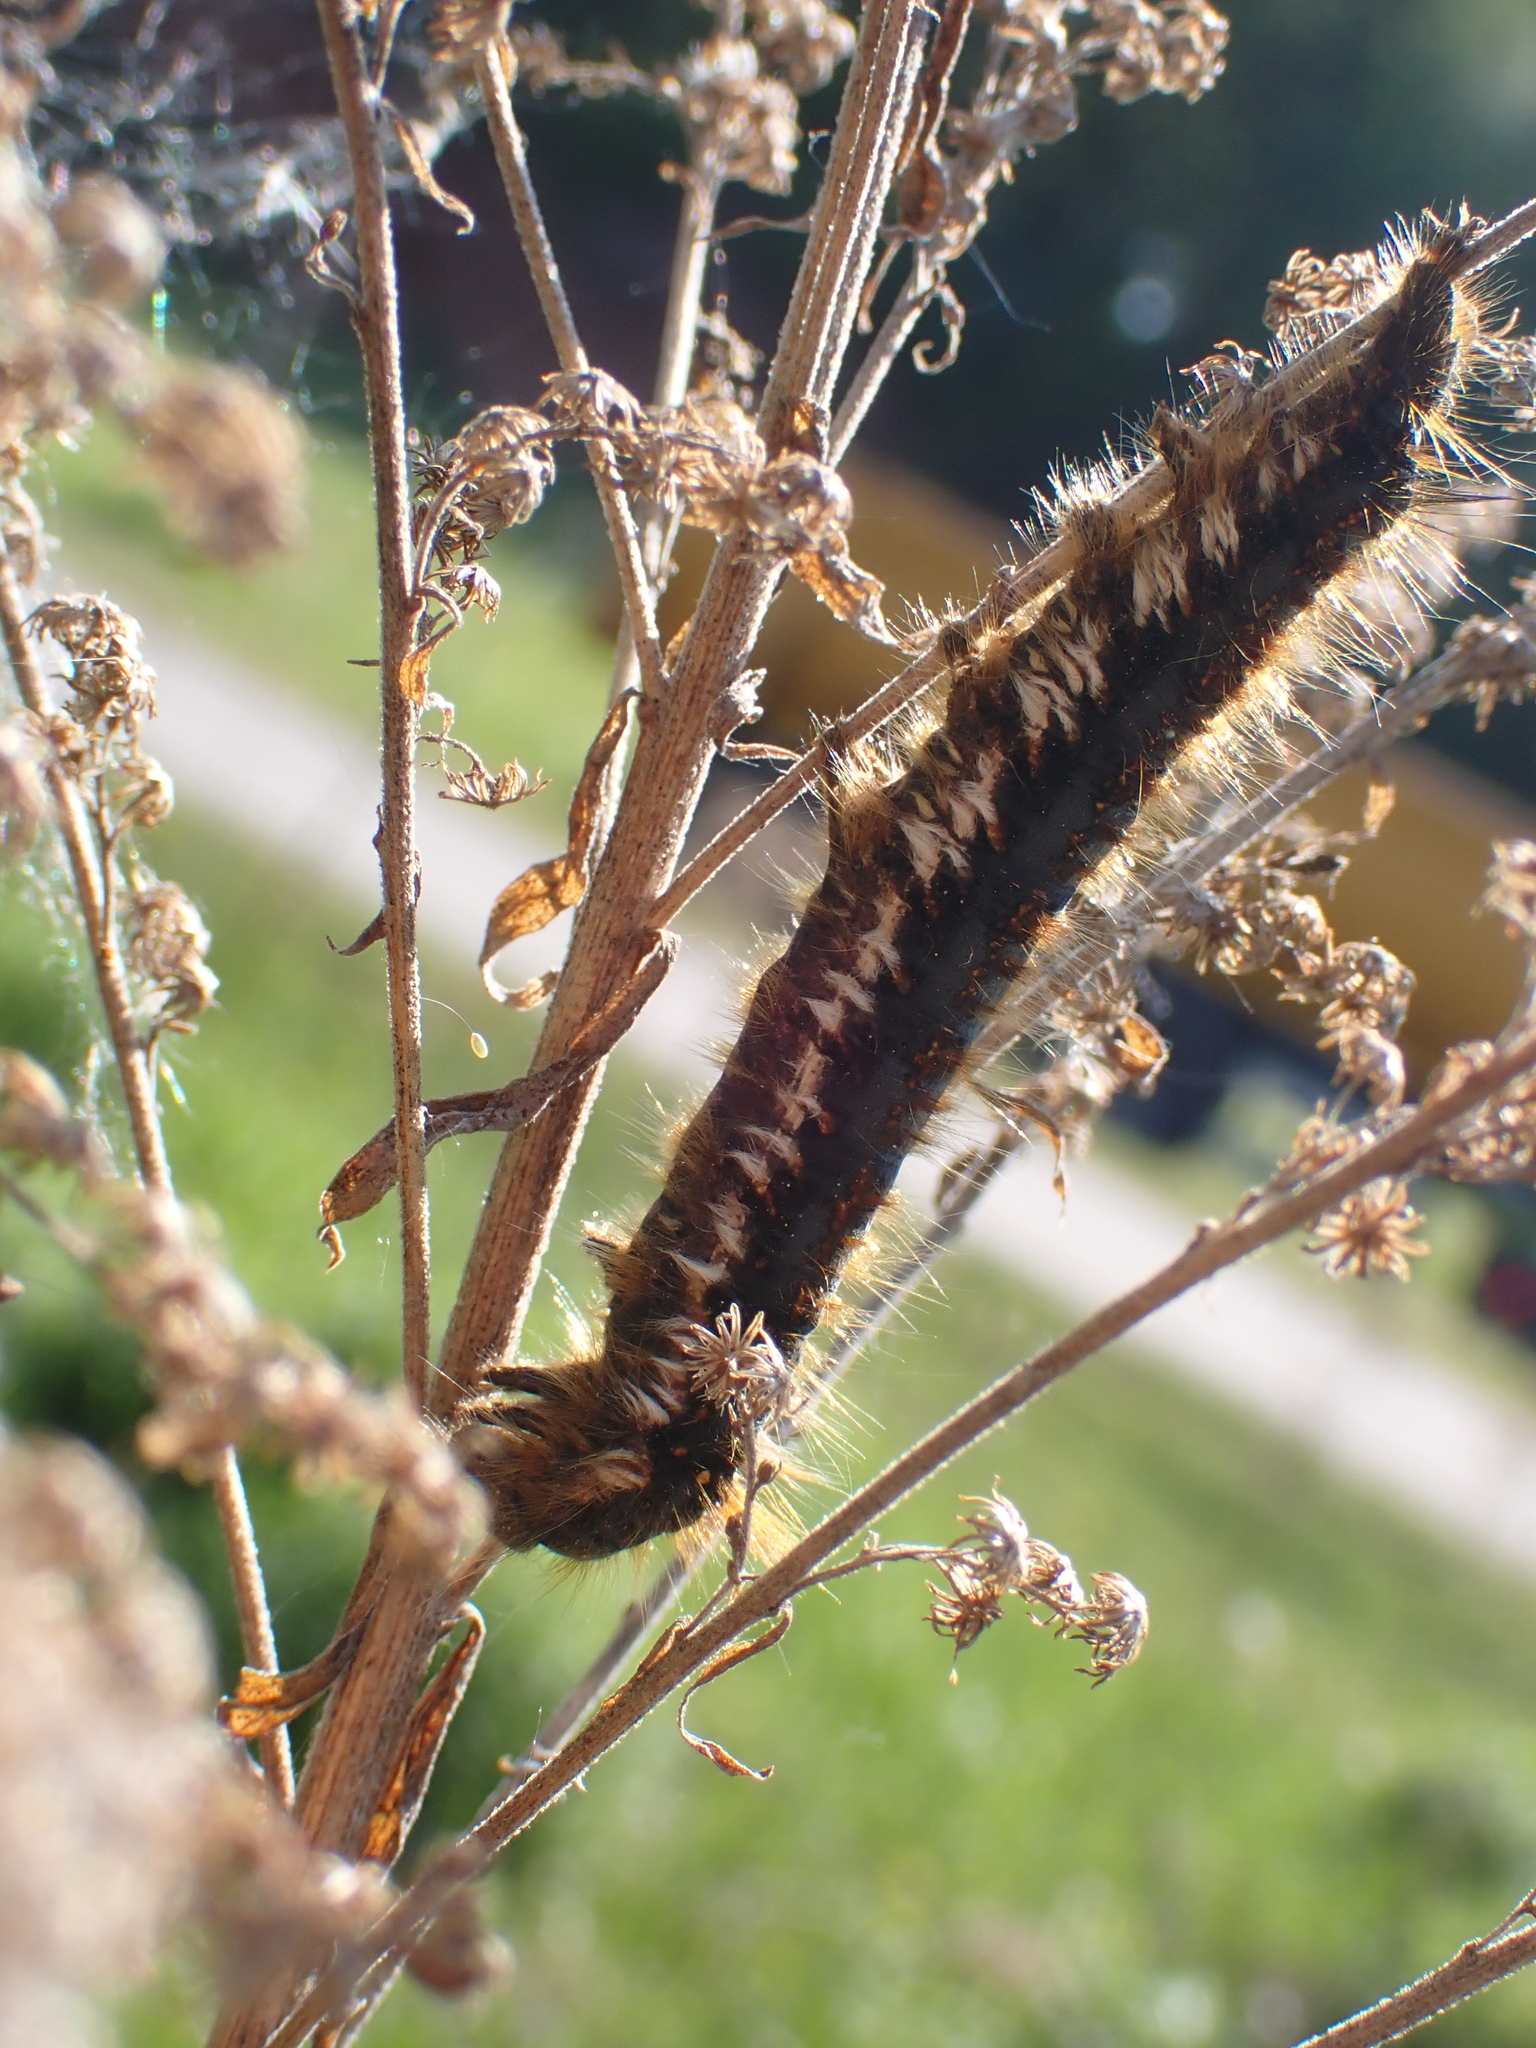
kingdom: Animalia
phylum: Arthropoda
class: Insecta
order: Lepidoptera
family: Lasiocampidae
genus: Euthrix
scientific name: Euthrix potatoria
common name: Drinker
